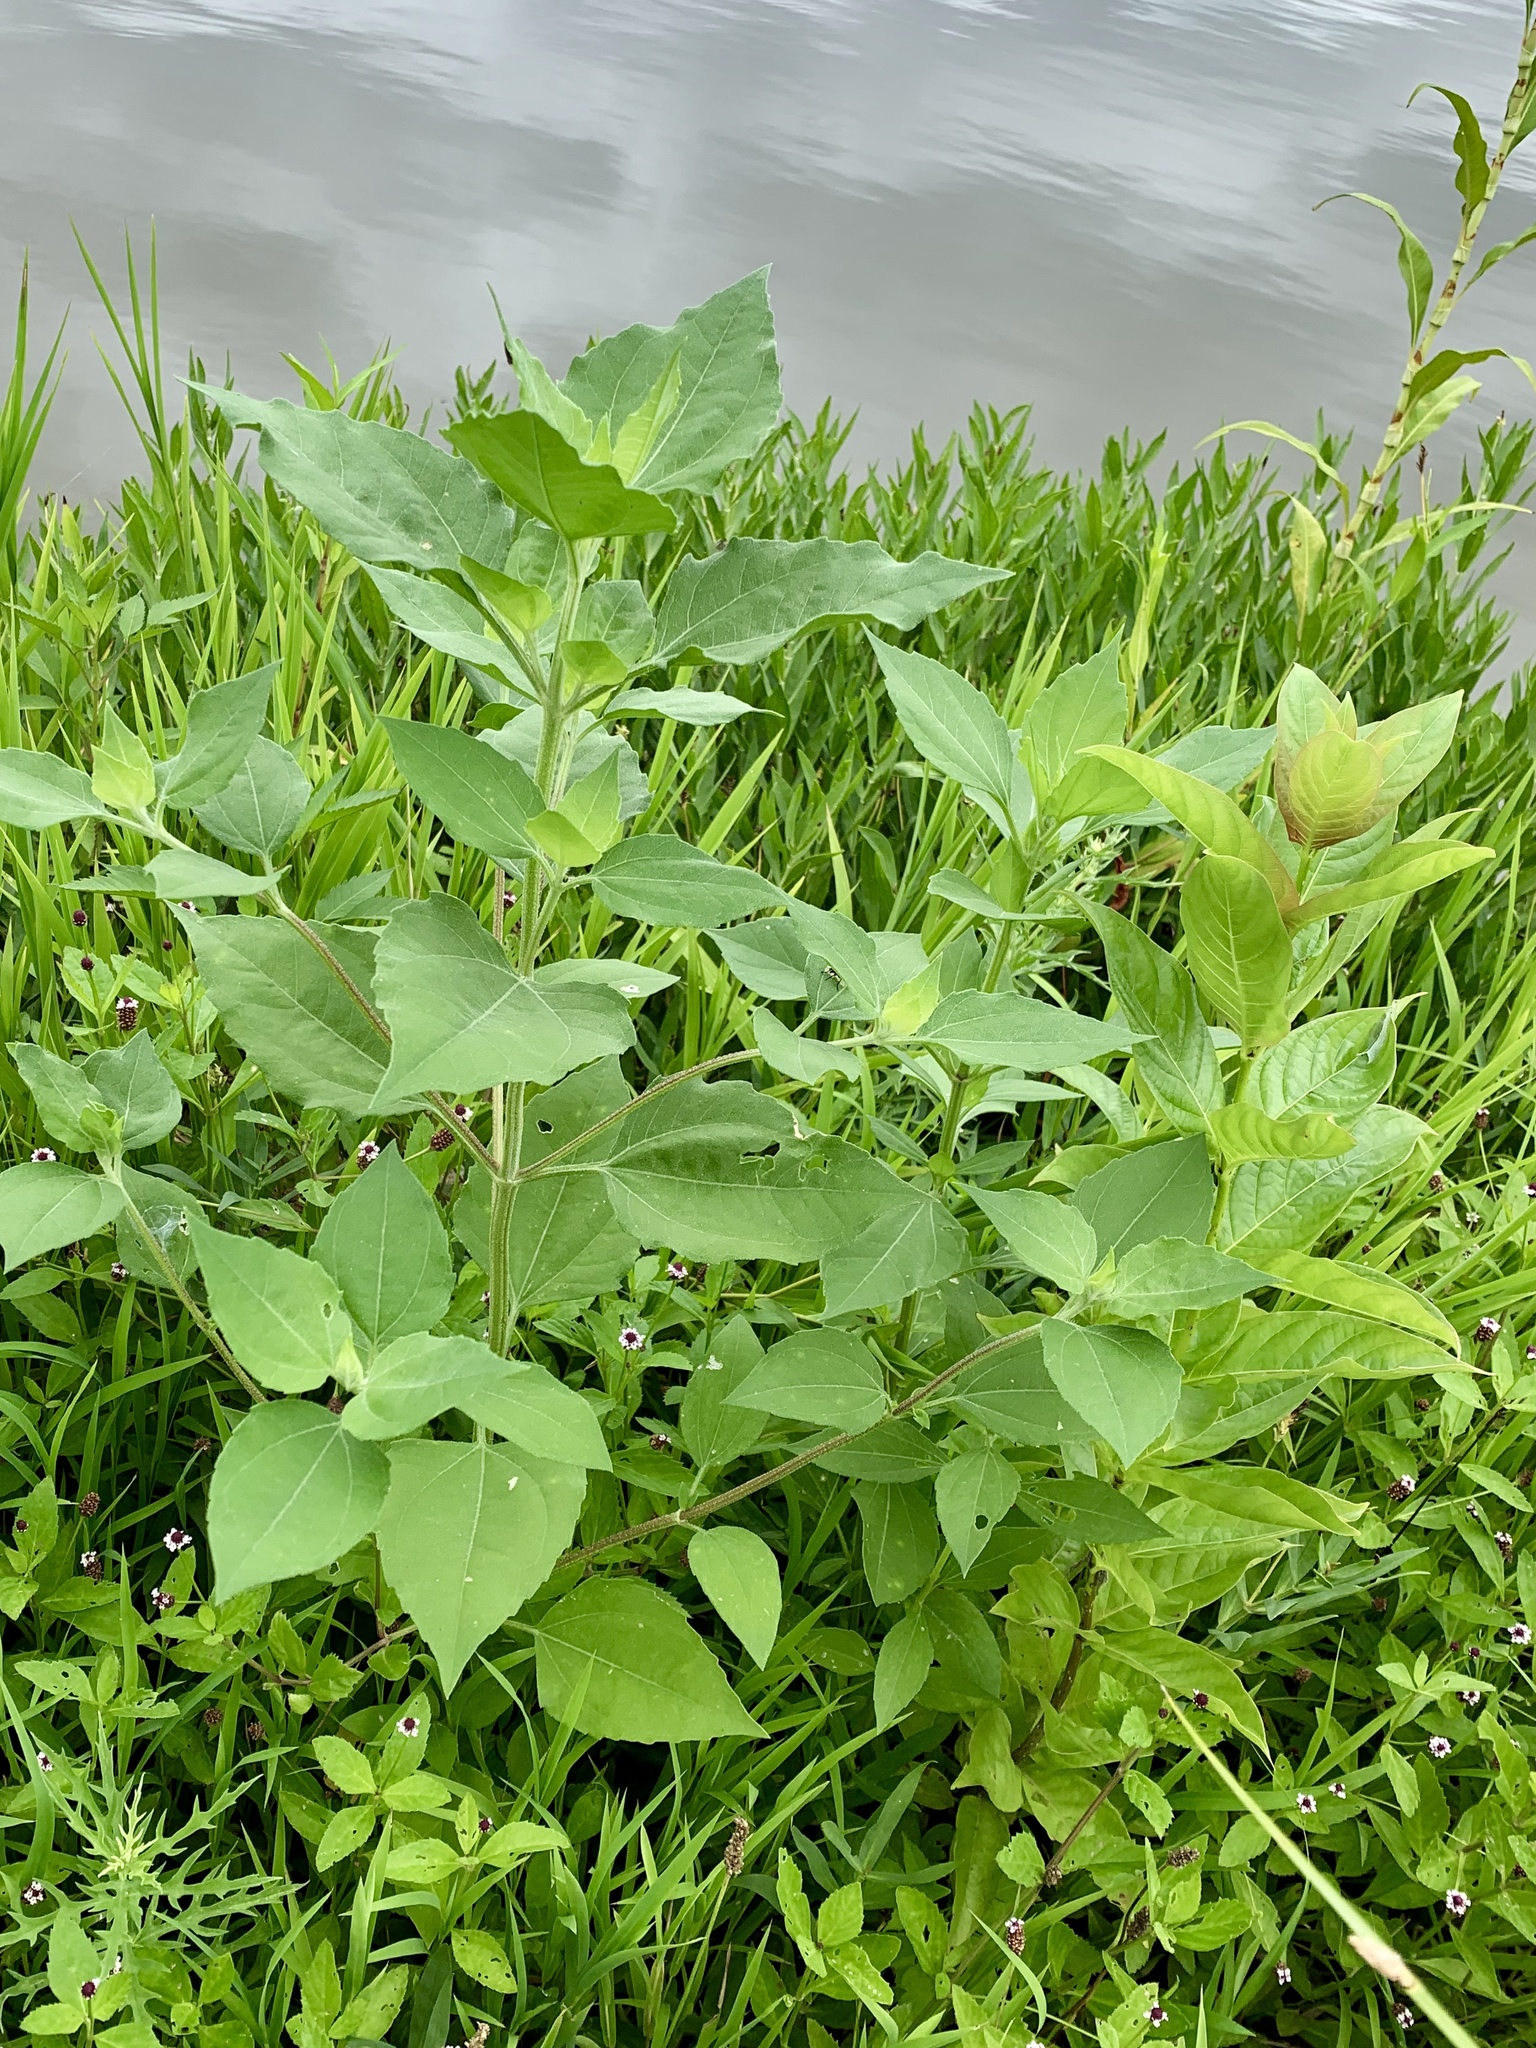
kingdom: Plantae
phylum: Tracheophyta
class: Magnoliopsida
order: Asterales
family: Asteraceae
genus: Iva
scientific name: Iva annua
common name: Marsh-elder
